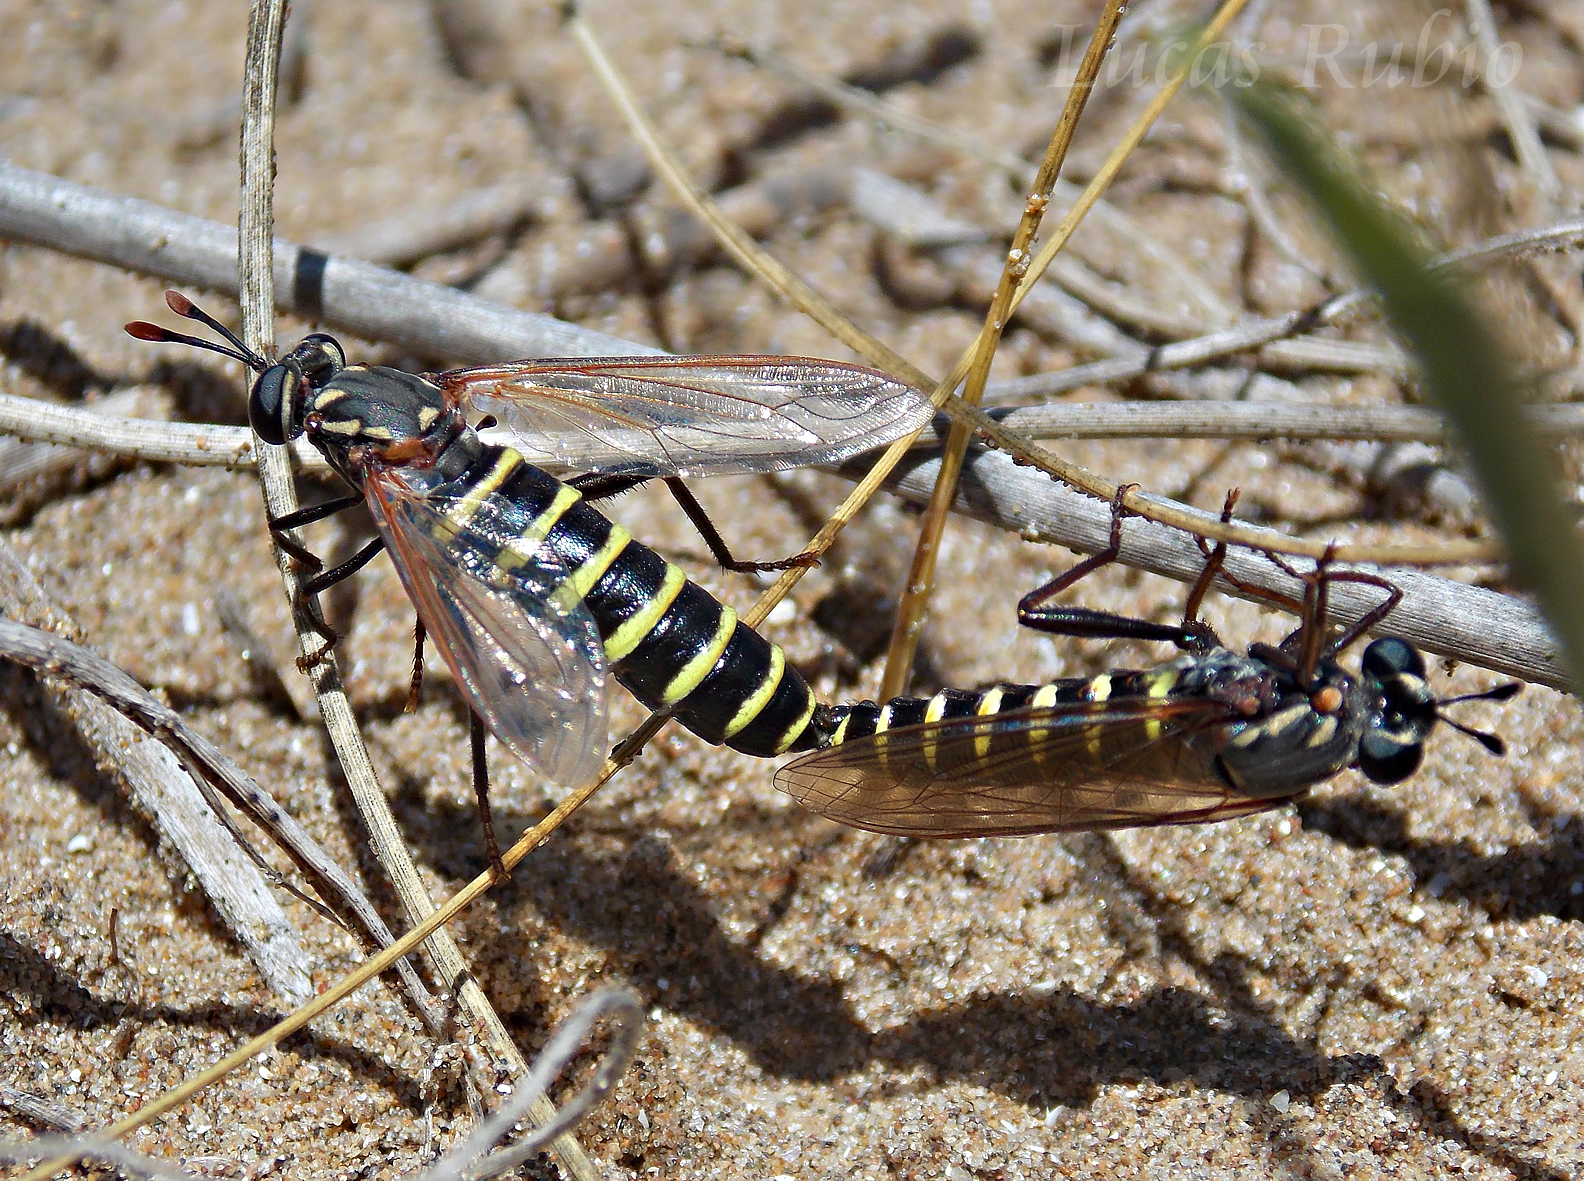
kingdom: Animalia
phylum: Arthropoda
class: Insecta
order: Diptera
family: Mydidae
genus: Messiasia
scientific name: Messiasia notospila
